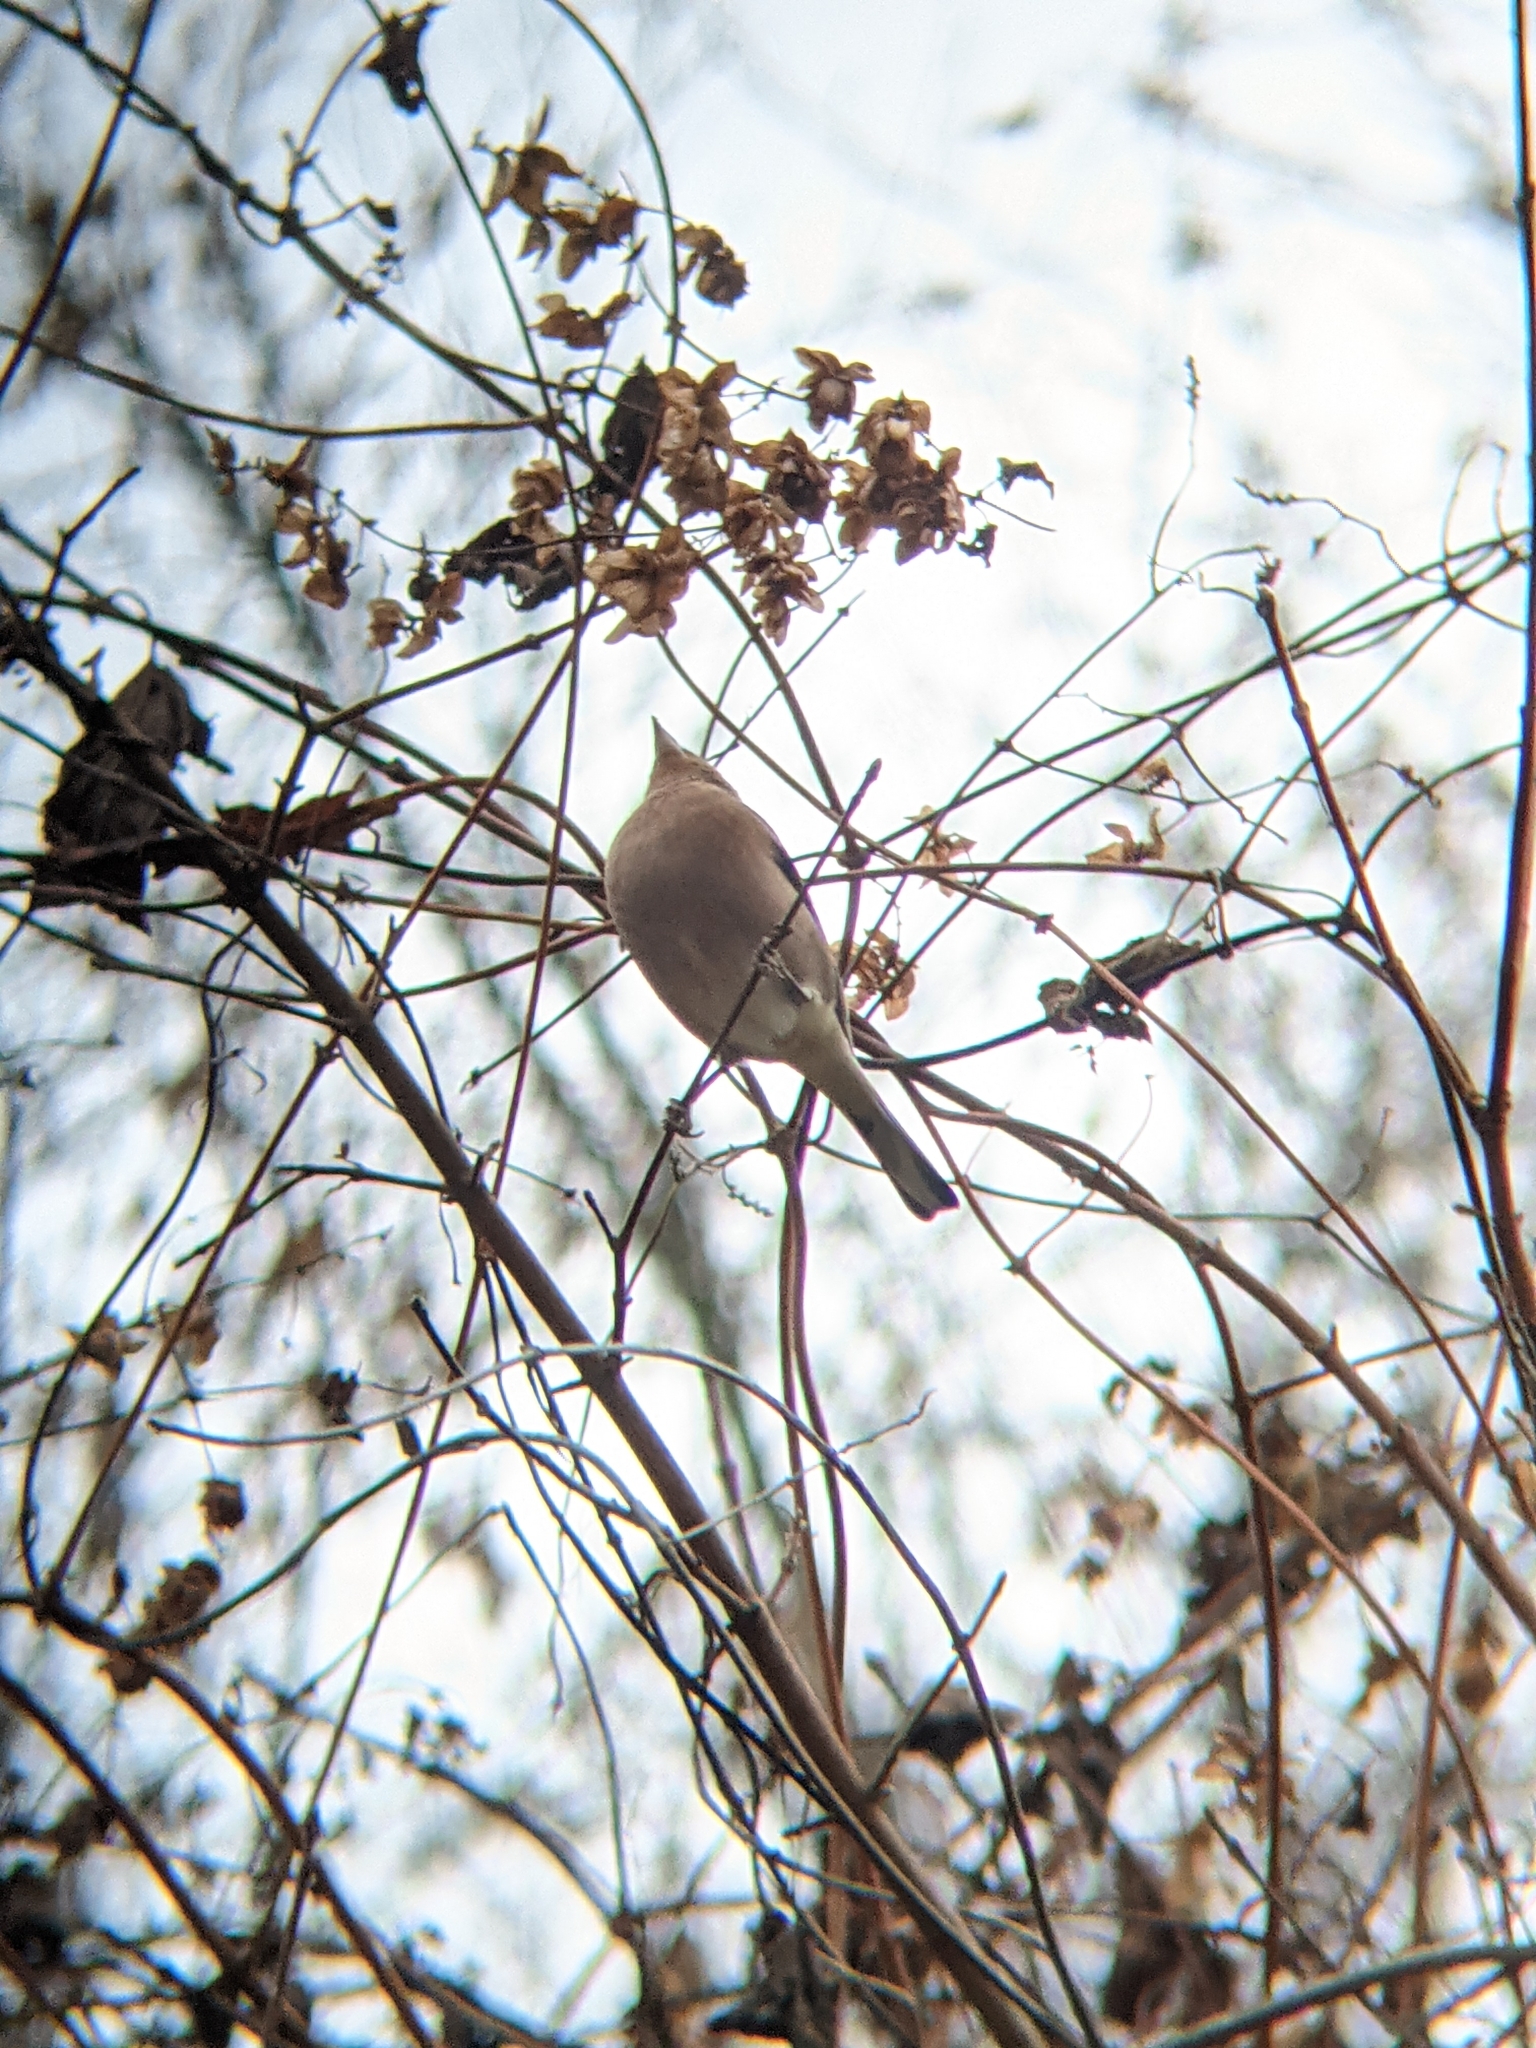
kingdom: Animalia
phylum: Chordata
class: Aves
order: Passeriformes
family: Fringillidae
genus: Fringilla
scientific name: Fringilla coelebs
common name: Common chaffinch
